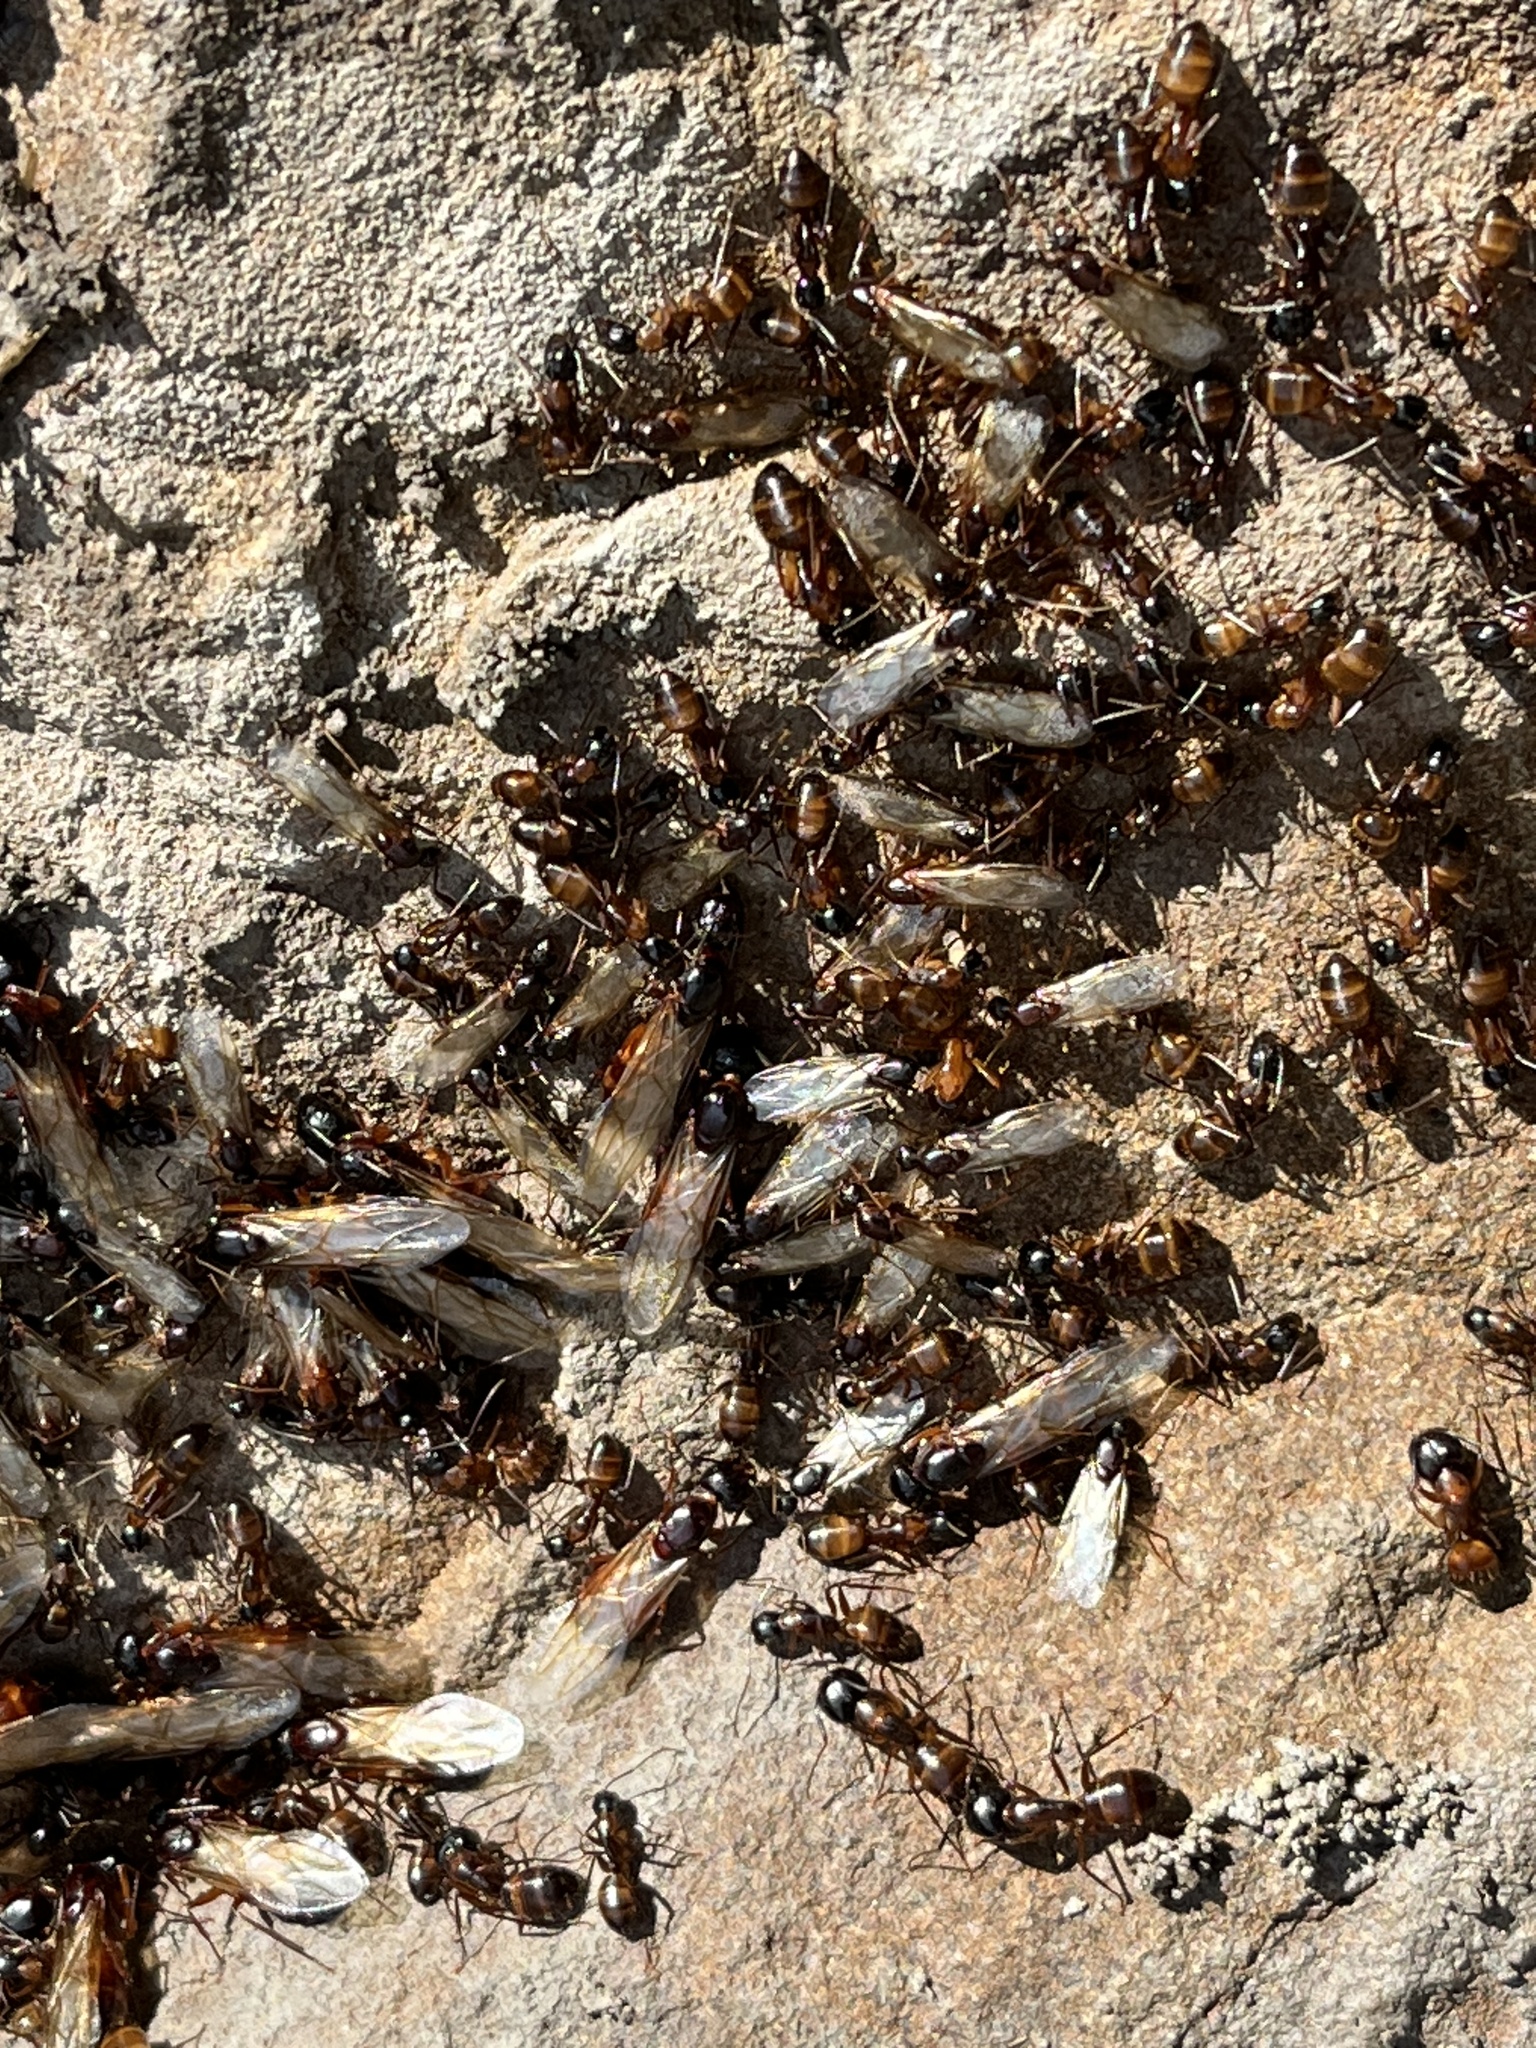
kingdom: Animalia
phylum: Arthropoda
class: Insecta
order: Hymenoptera
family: Formicidae
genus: Camponotus
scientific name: Camponotus americanus
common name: American carpenter ant
